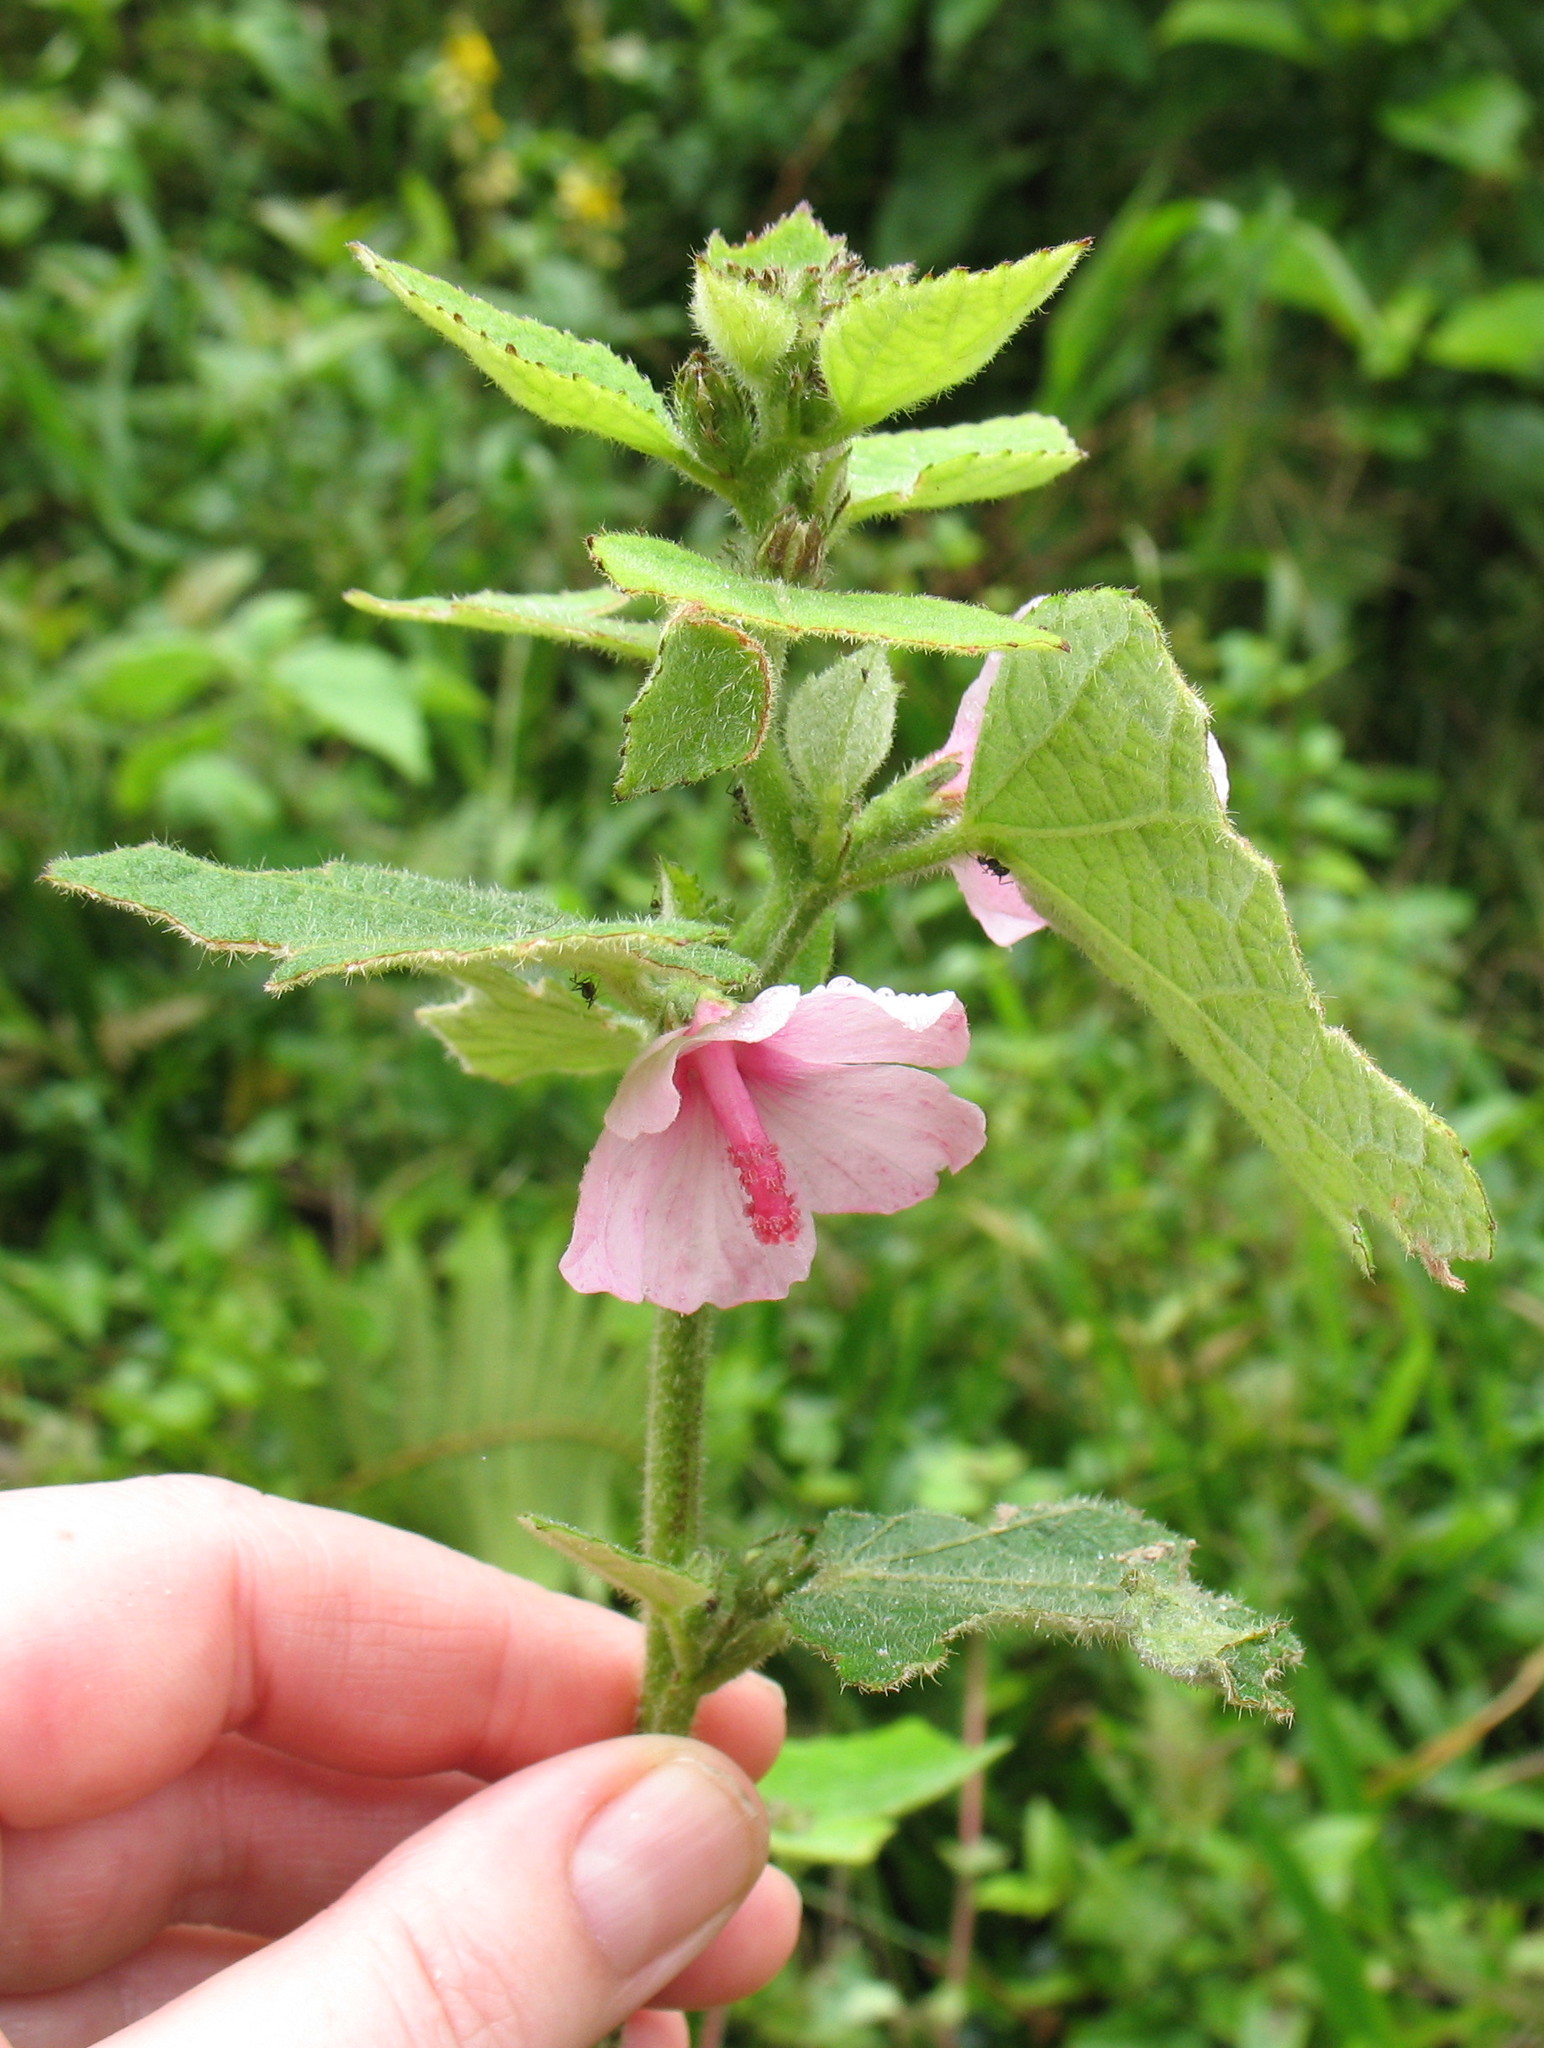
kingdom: Plantae
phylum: Tracheophyta
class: Magnoliopsida
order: Malvales
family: Malvaceae
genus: Urena
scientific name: Urena lobata
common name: Caesarweed
